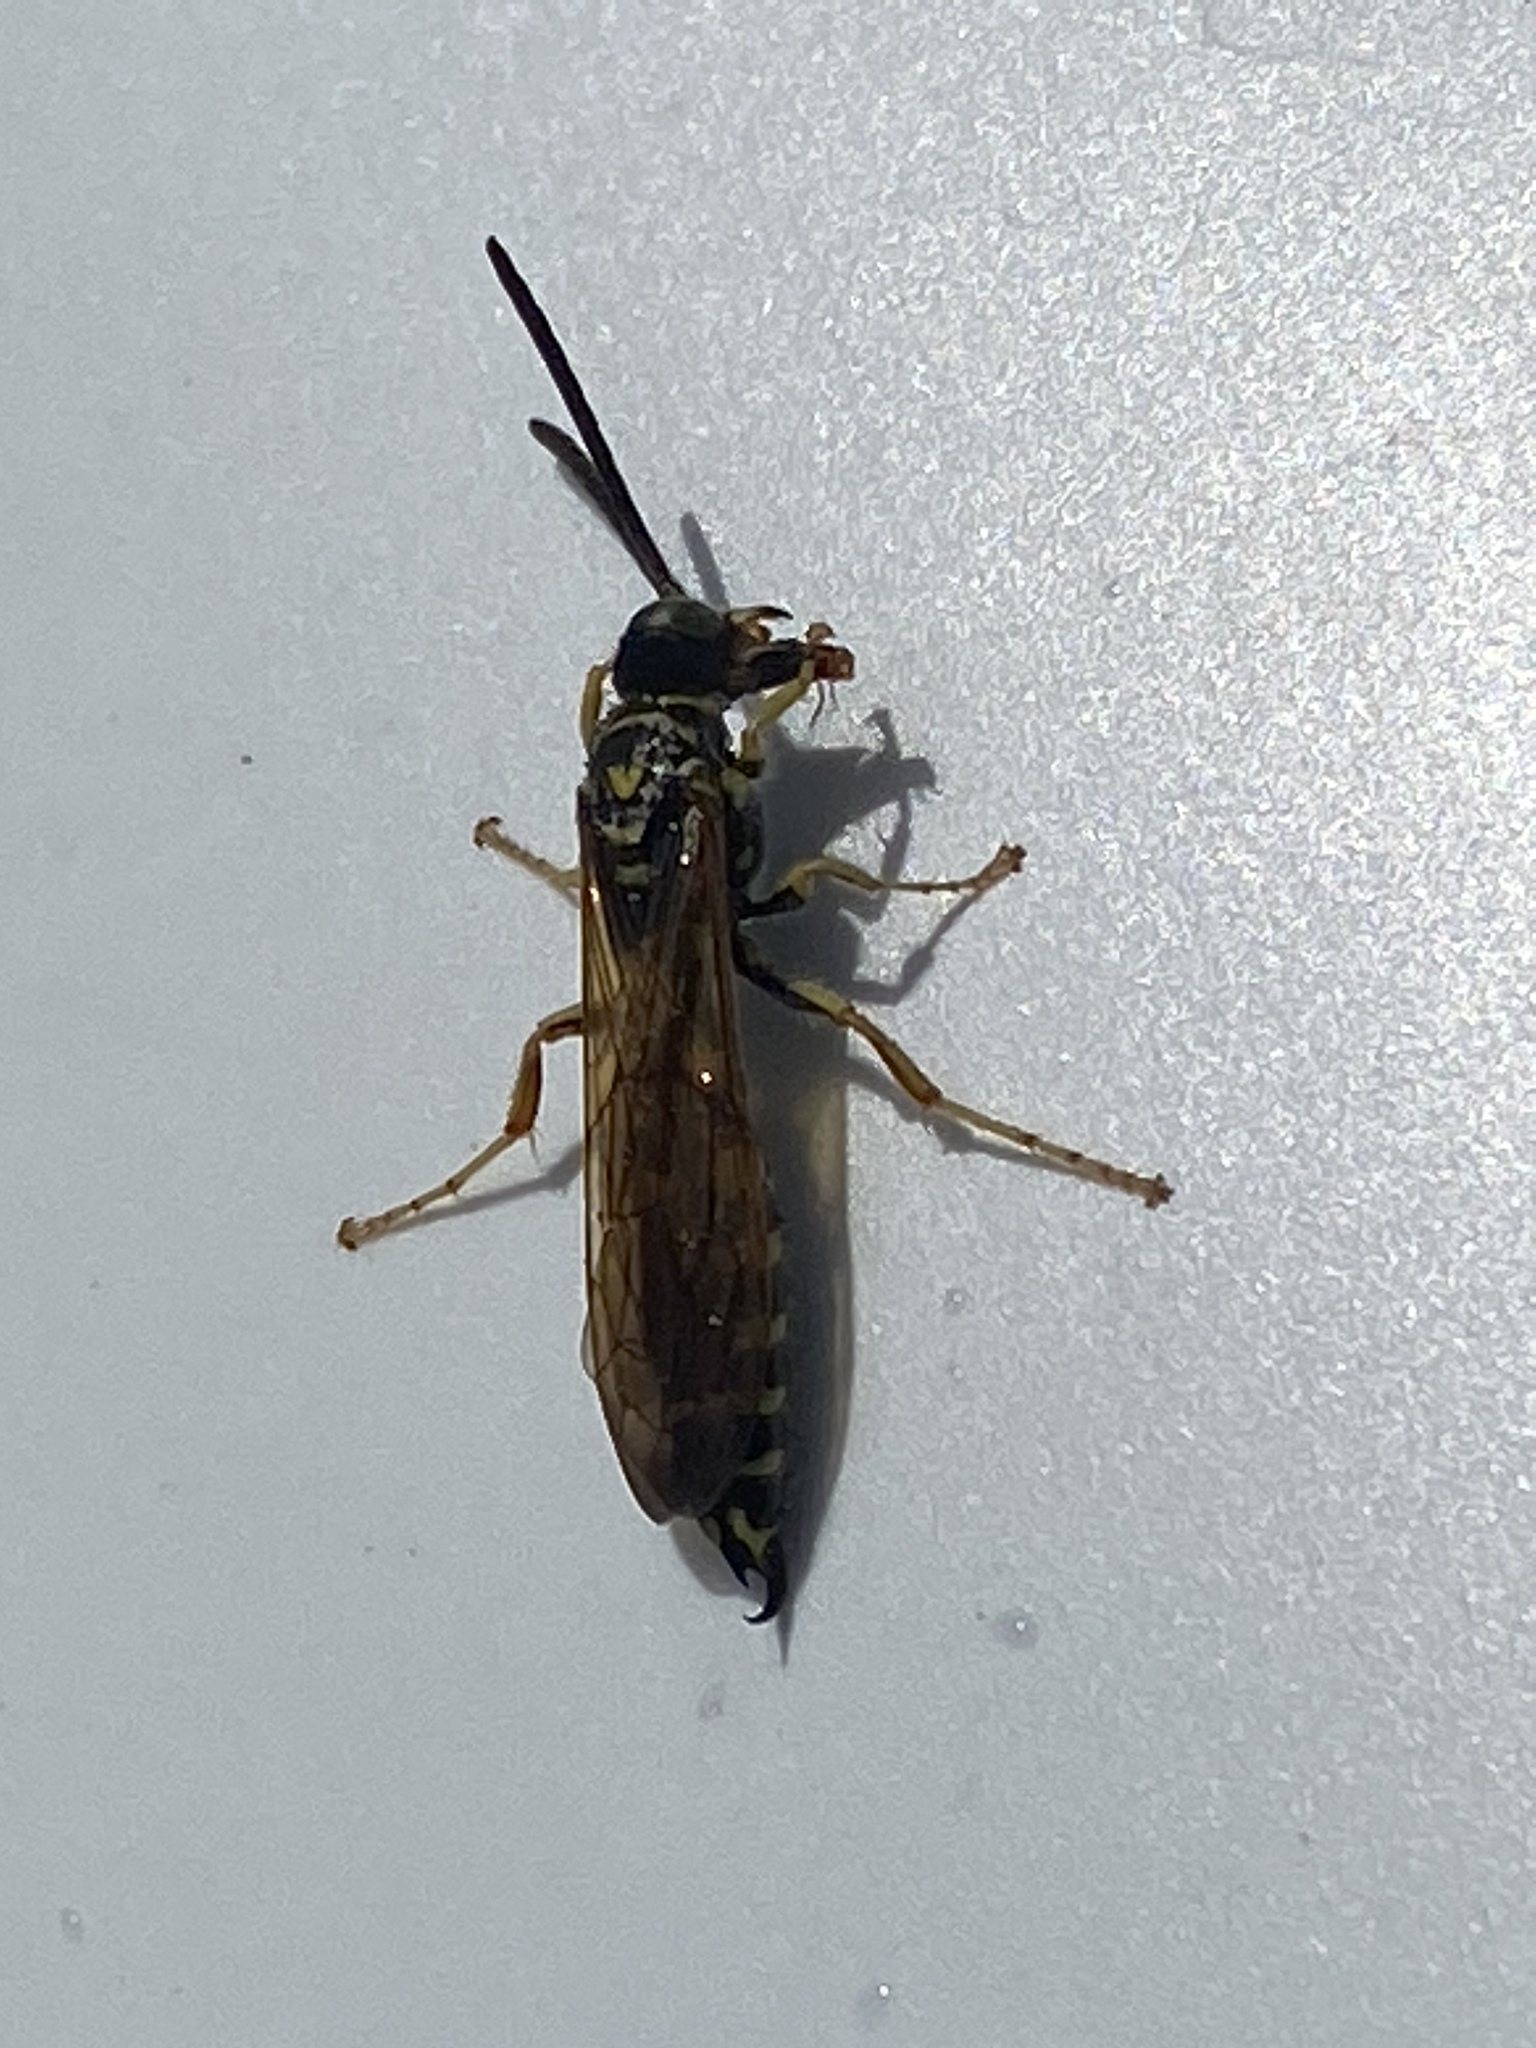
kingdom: Animalia
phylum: Arthropoda
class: Insecta
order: Hymenoptera
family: Tiphiidae
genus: Myzinum
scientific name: Myzinum quinquecinctum
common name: Five-banded thynnid wasp
